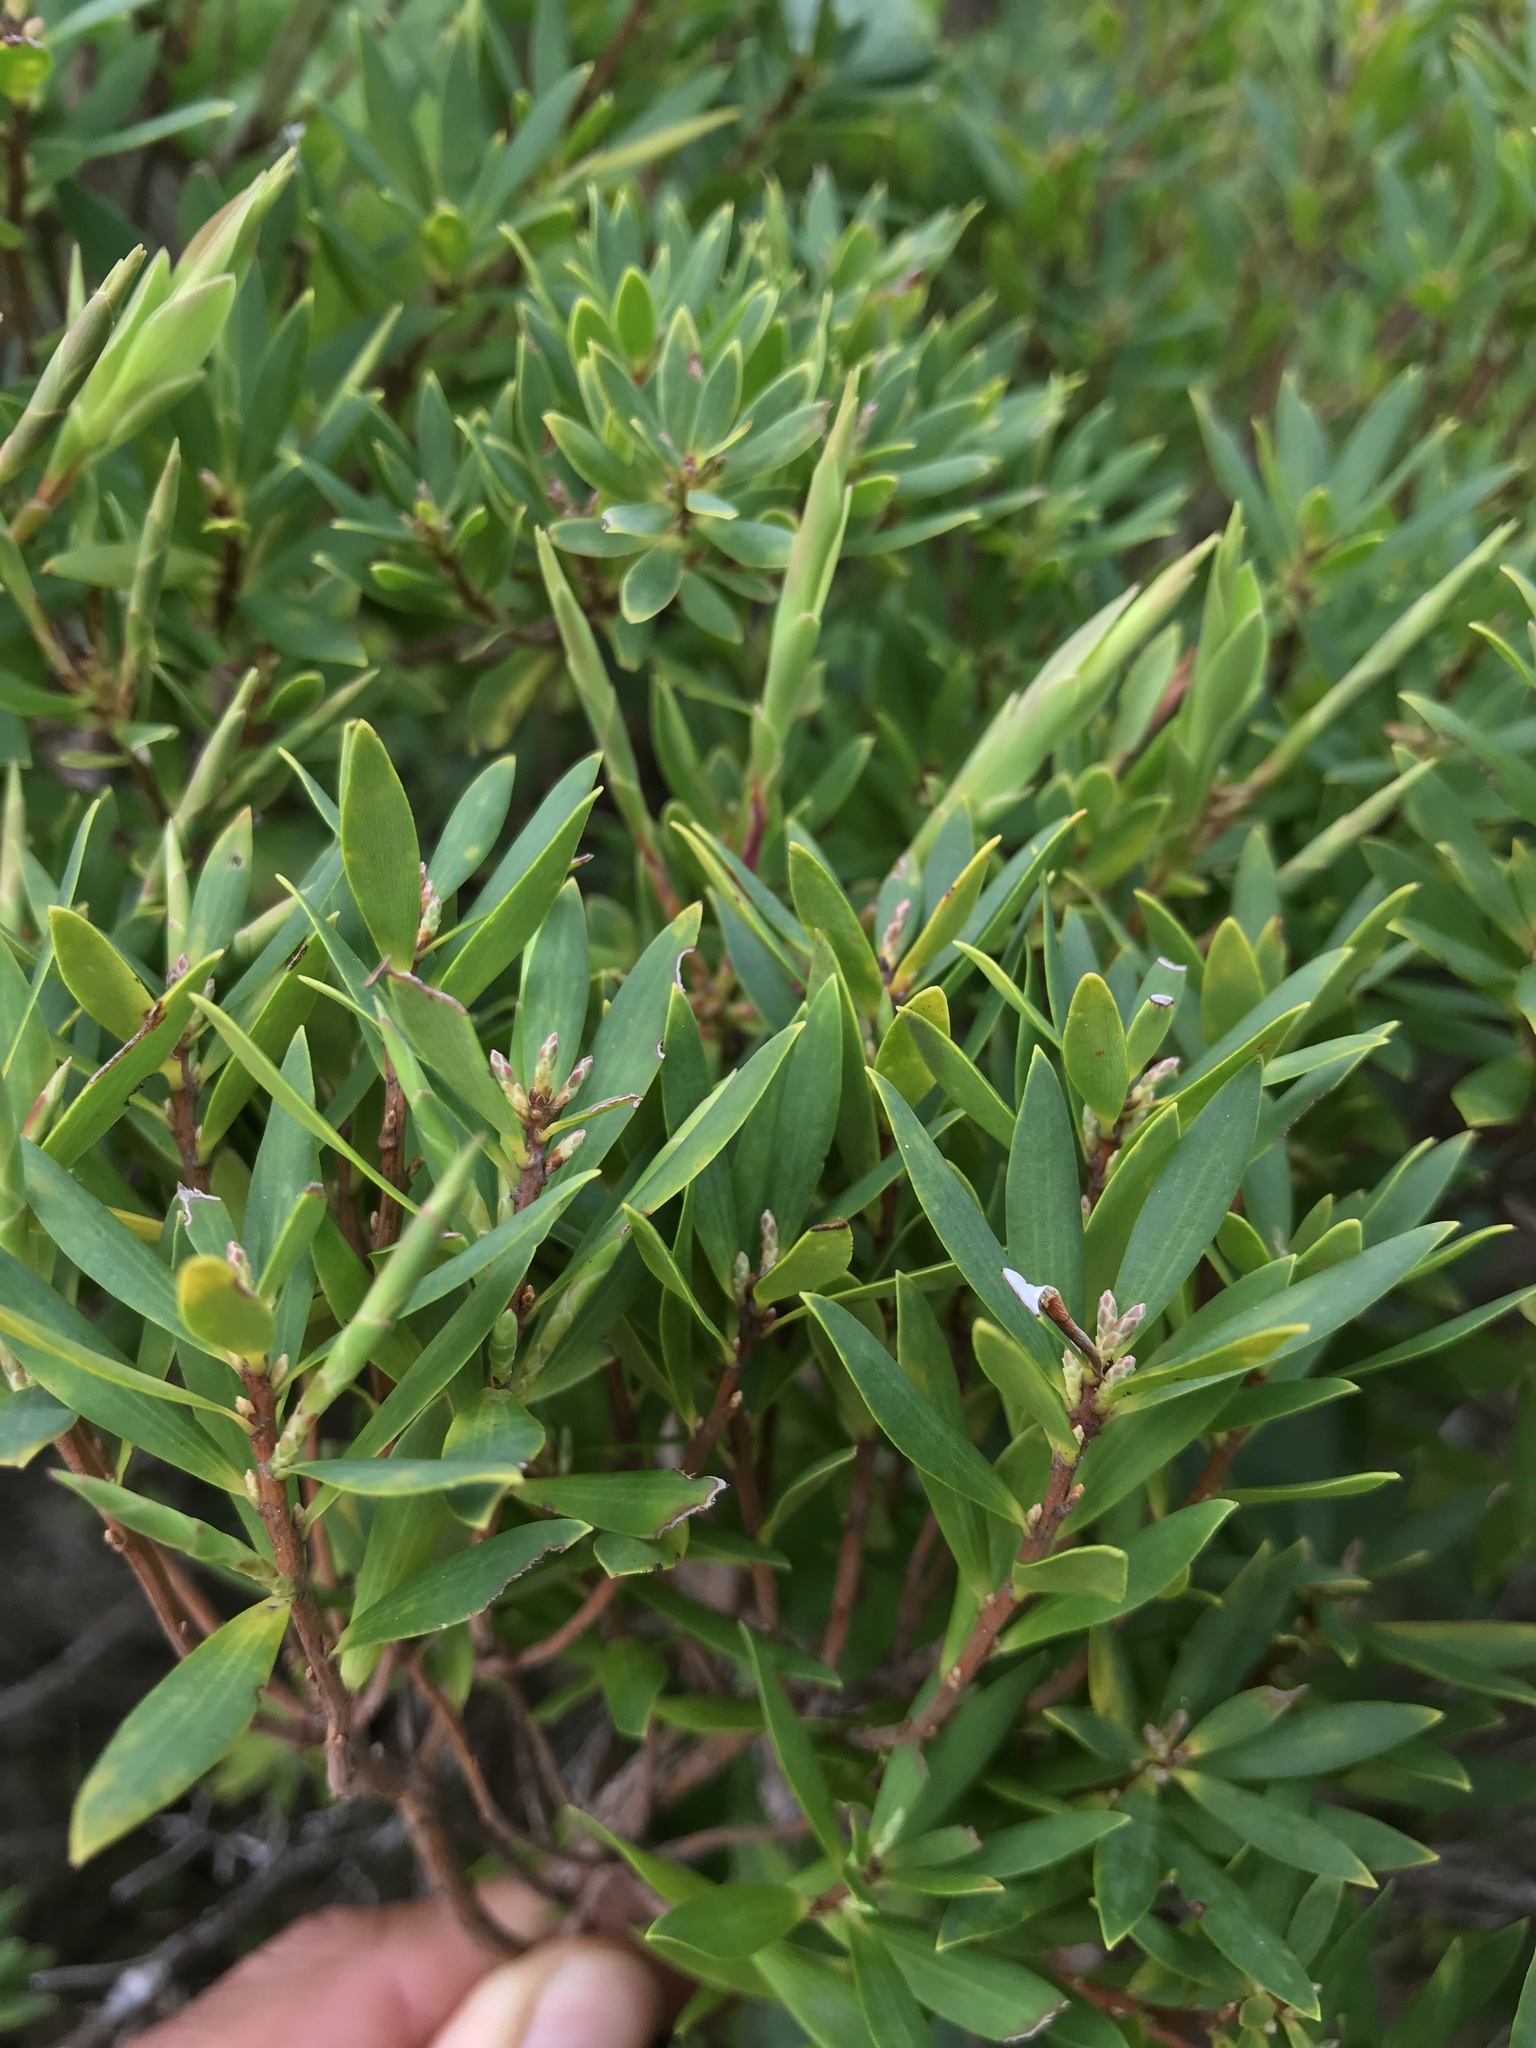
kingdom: Plantae
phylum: Tracheophyta
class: Magnoliopsida
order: Ericales
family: Ericaceae
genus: Leptecophylla
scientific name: Leptecophylla parvifolia
